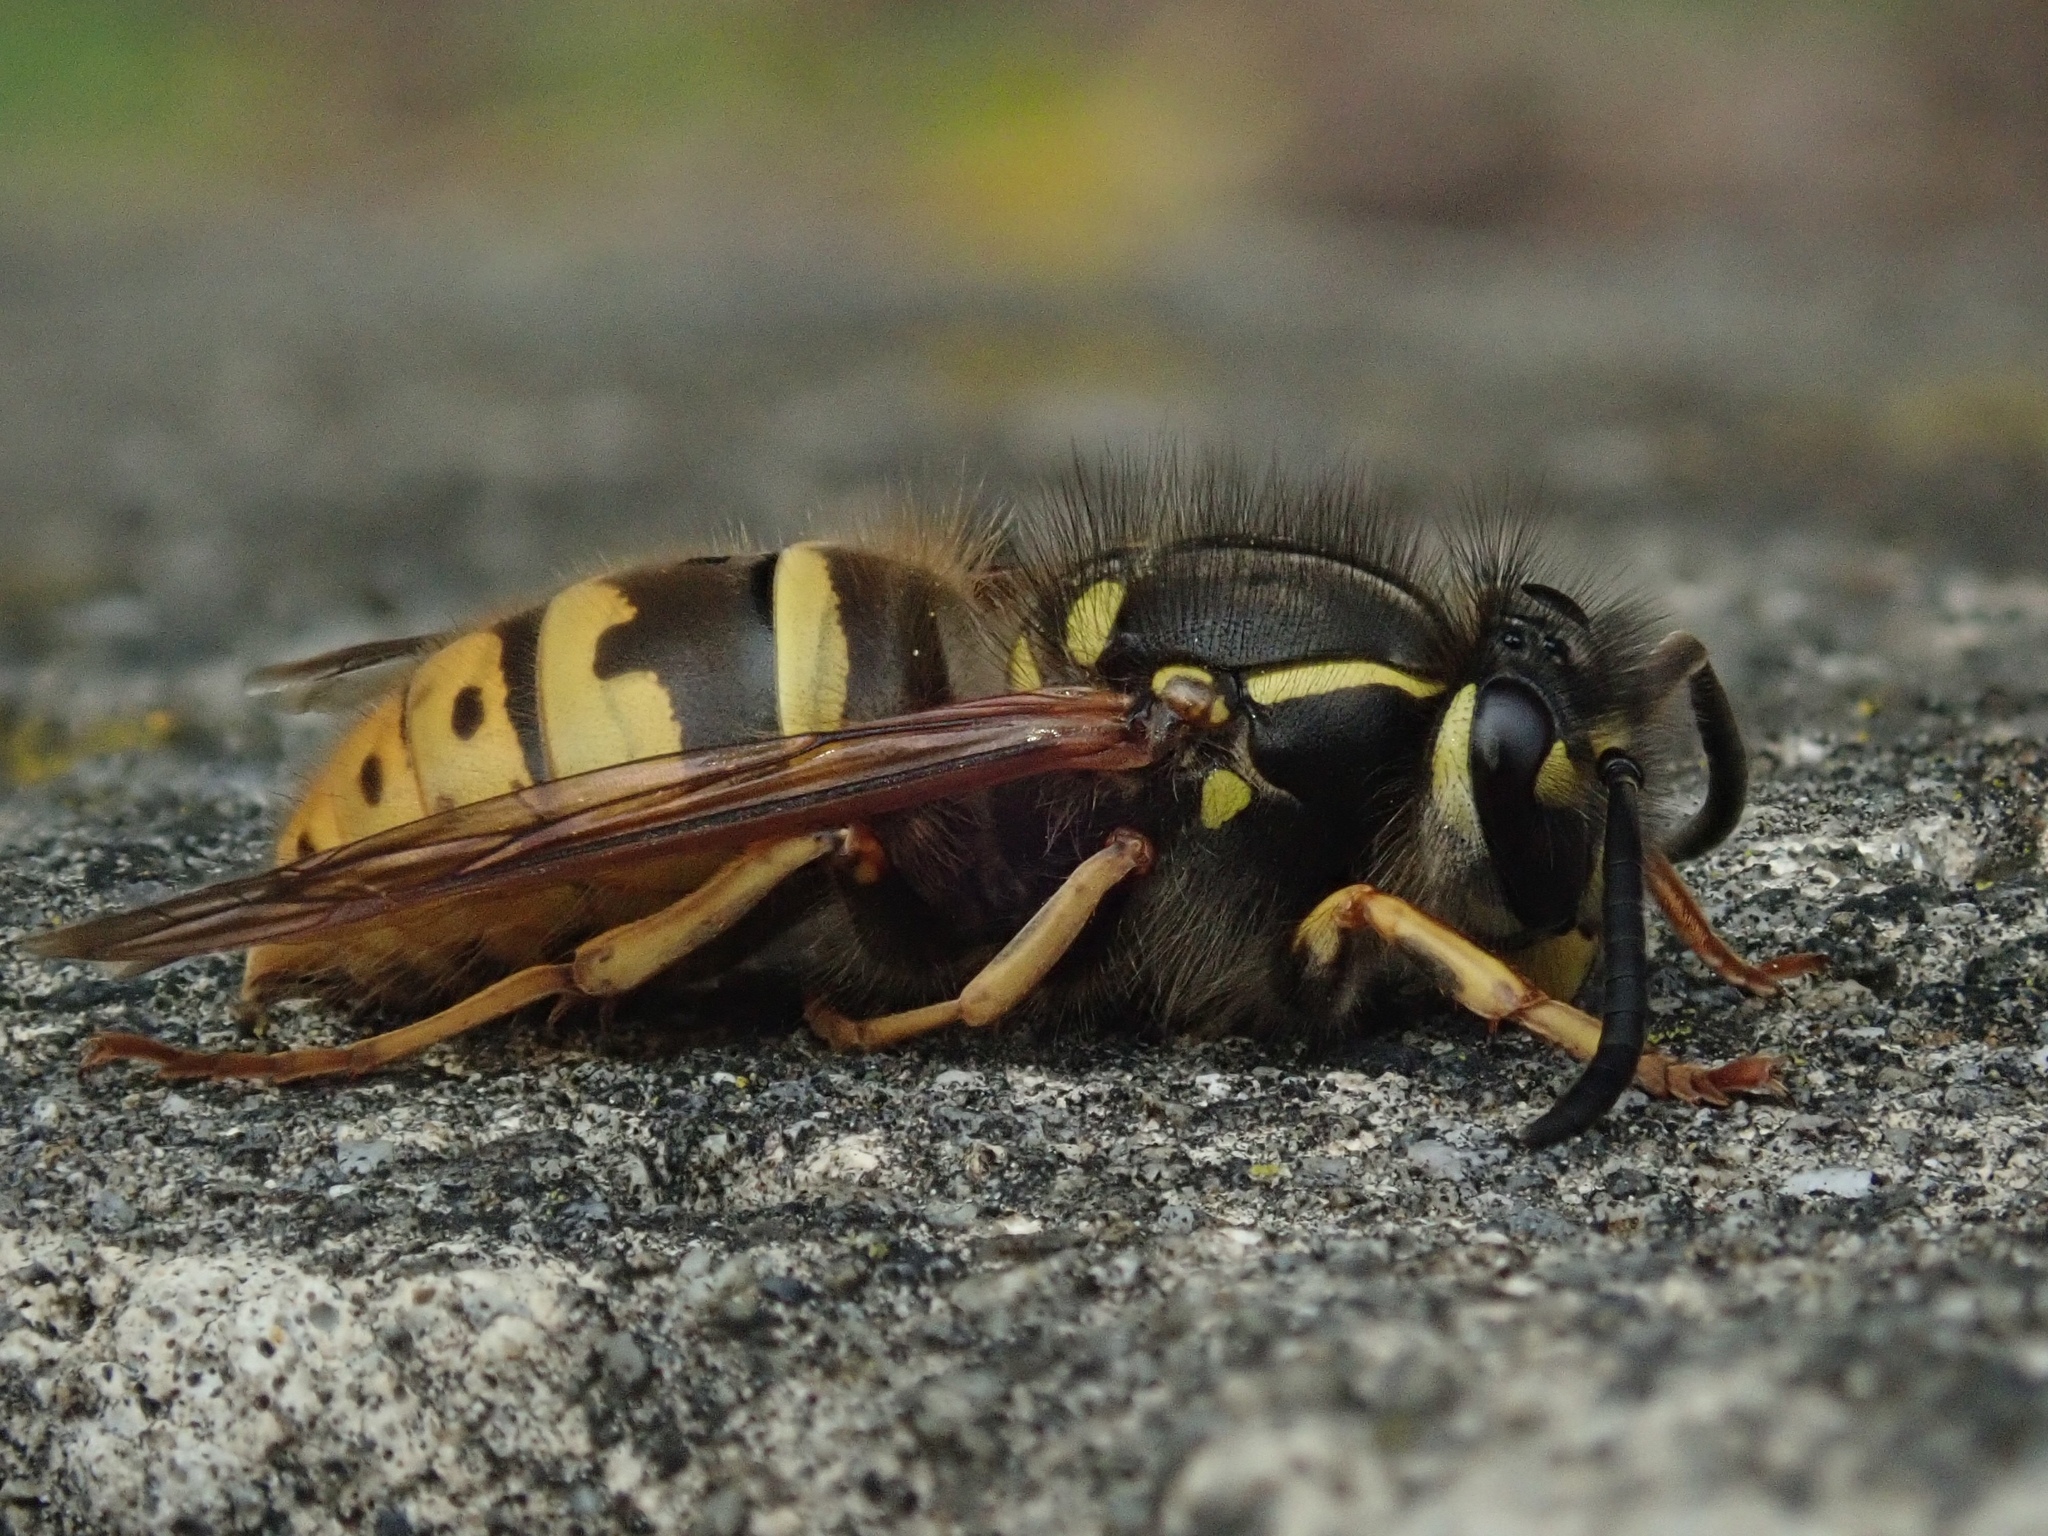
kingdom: Animalia
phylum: Arthropoda
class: Insecta
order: Hymenoptera
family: Vespidae
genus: Vespula
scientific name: Vespula vulgaris
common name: Common wasp
